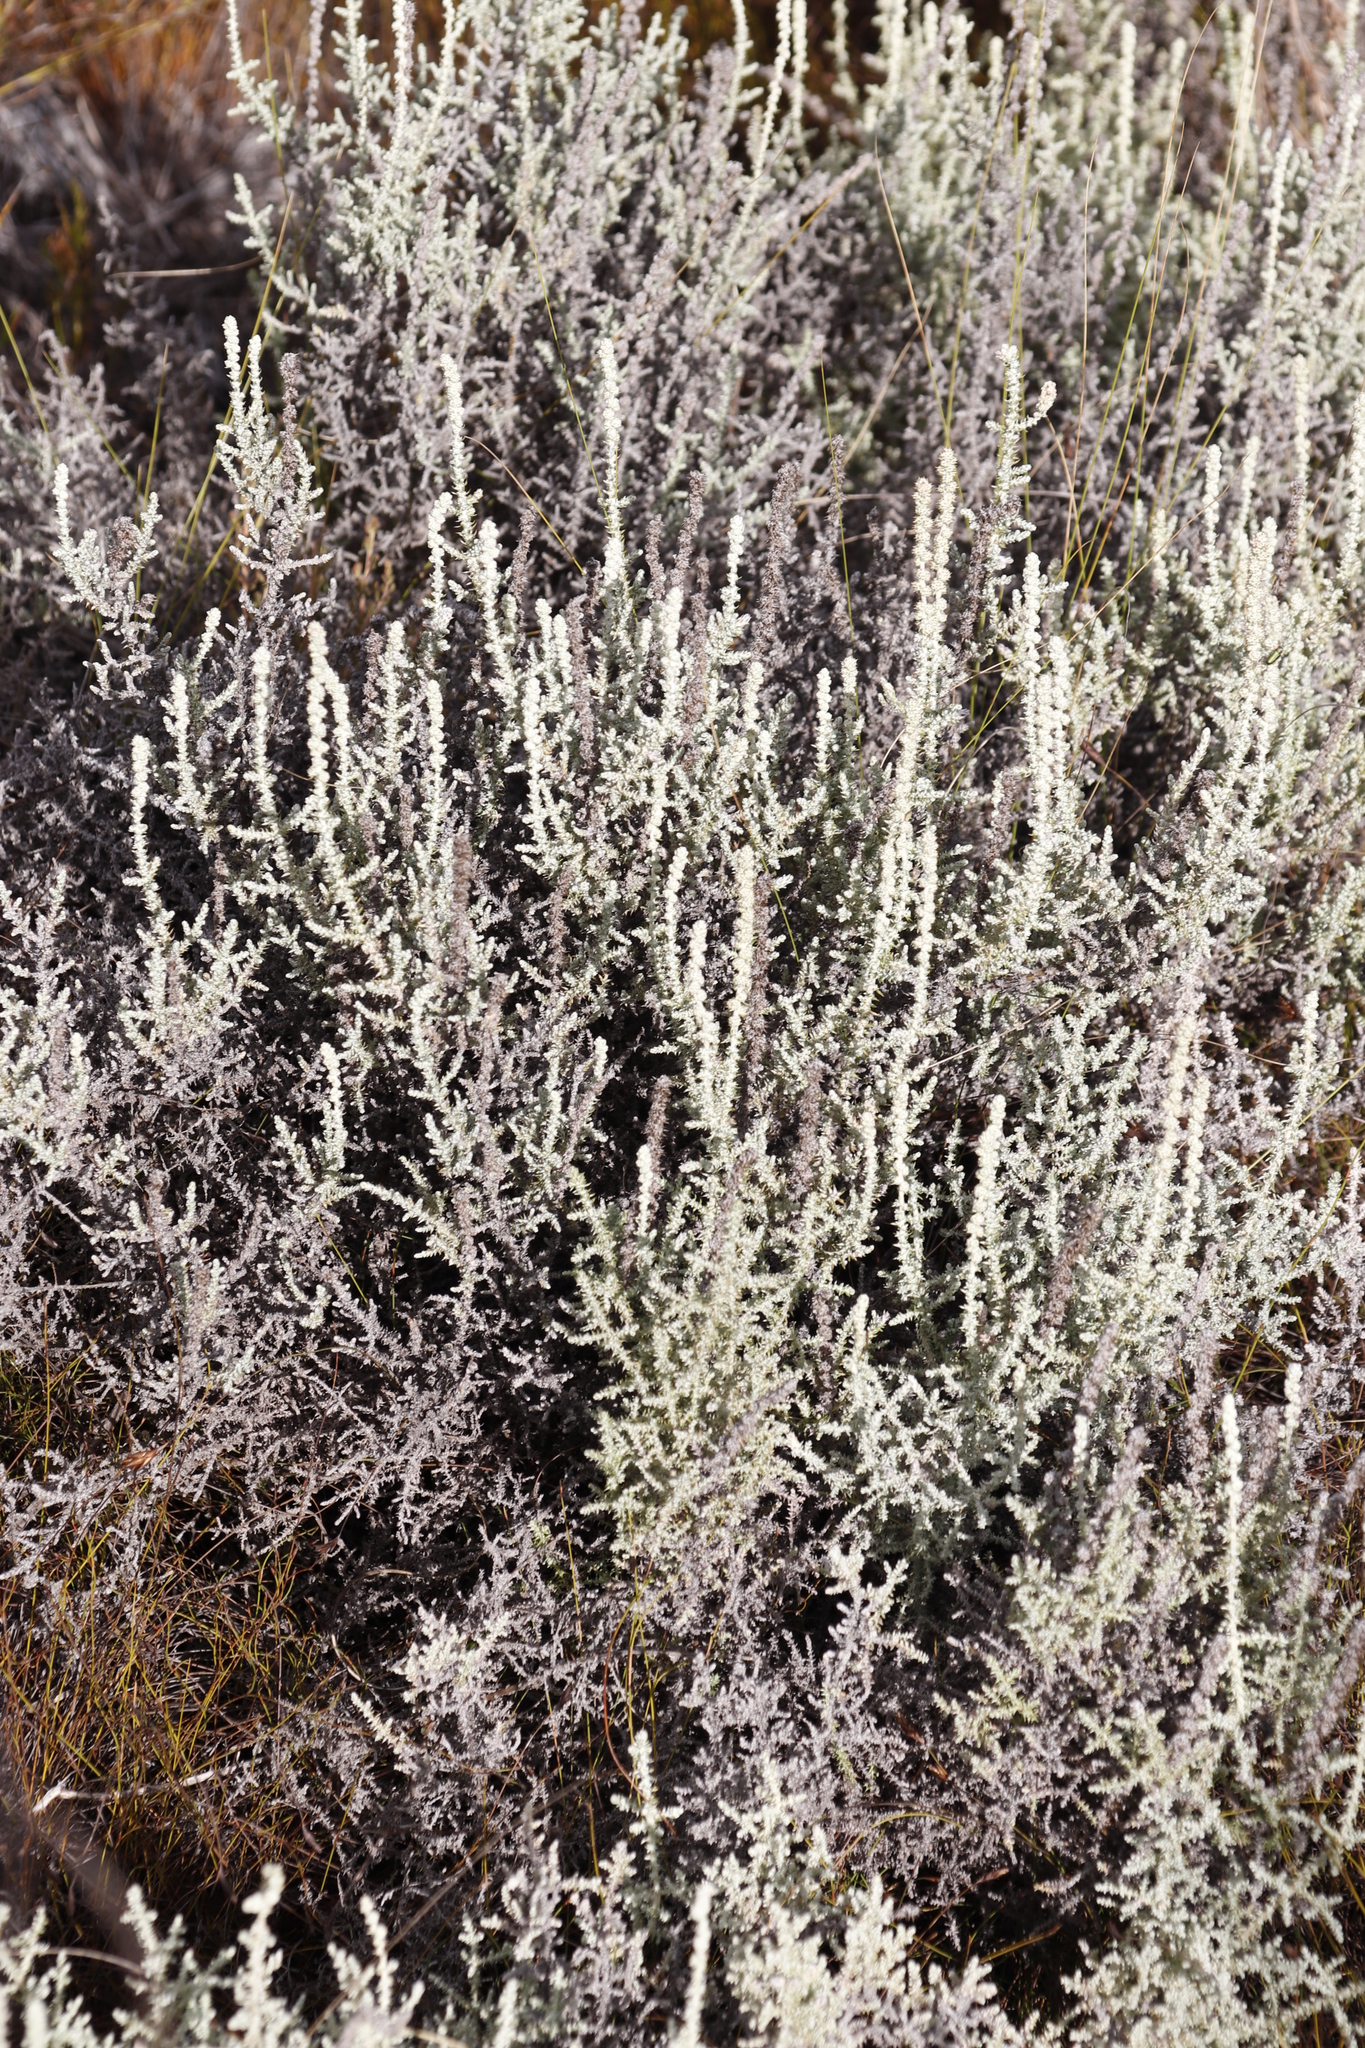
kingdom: Plantae
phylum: Tracheophyta
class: Magnoliopsida
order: Asterales
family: Asteraceae
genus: Seriphium
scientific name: Seriphium plumosum
